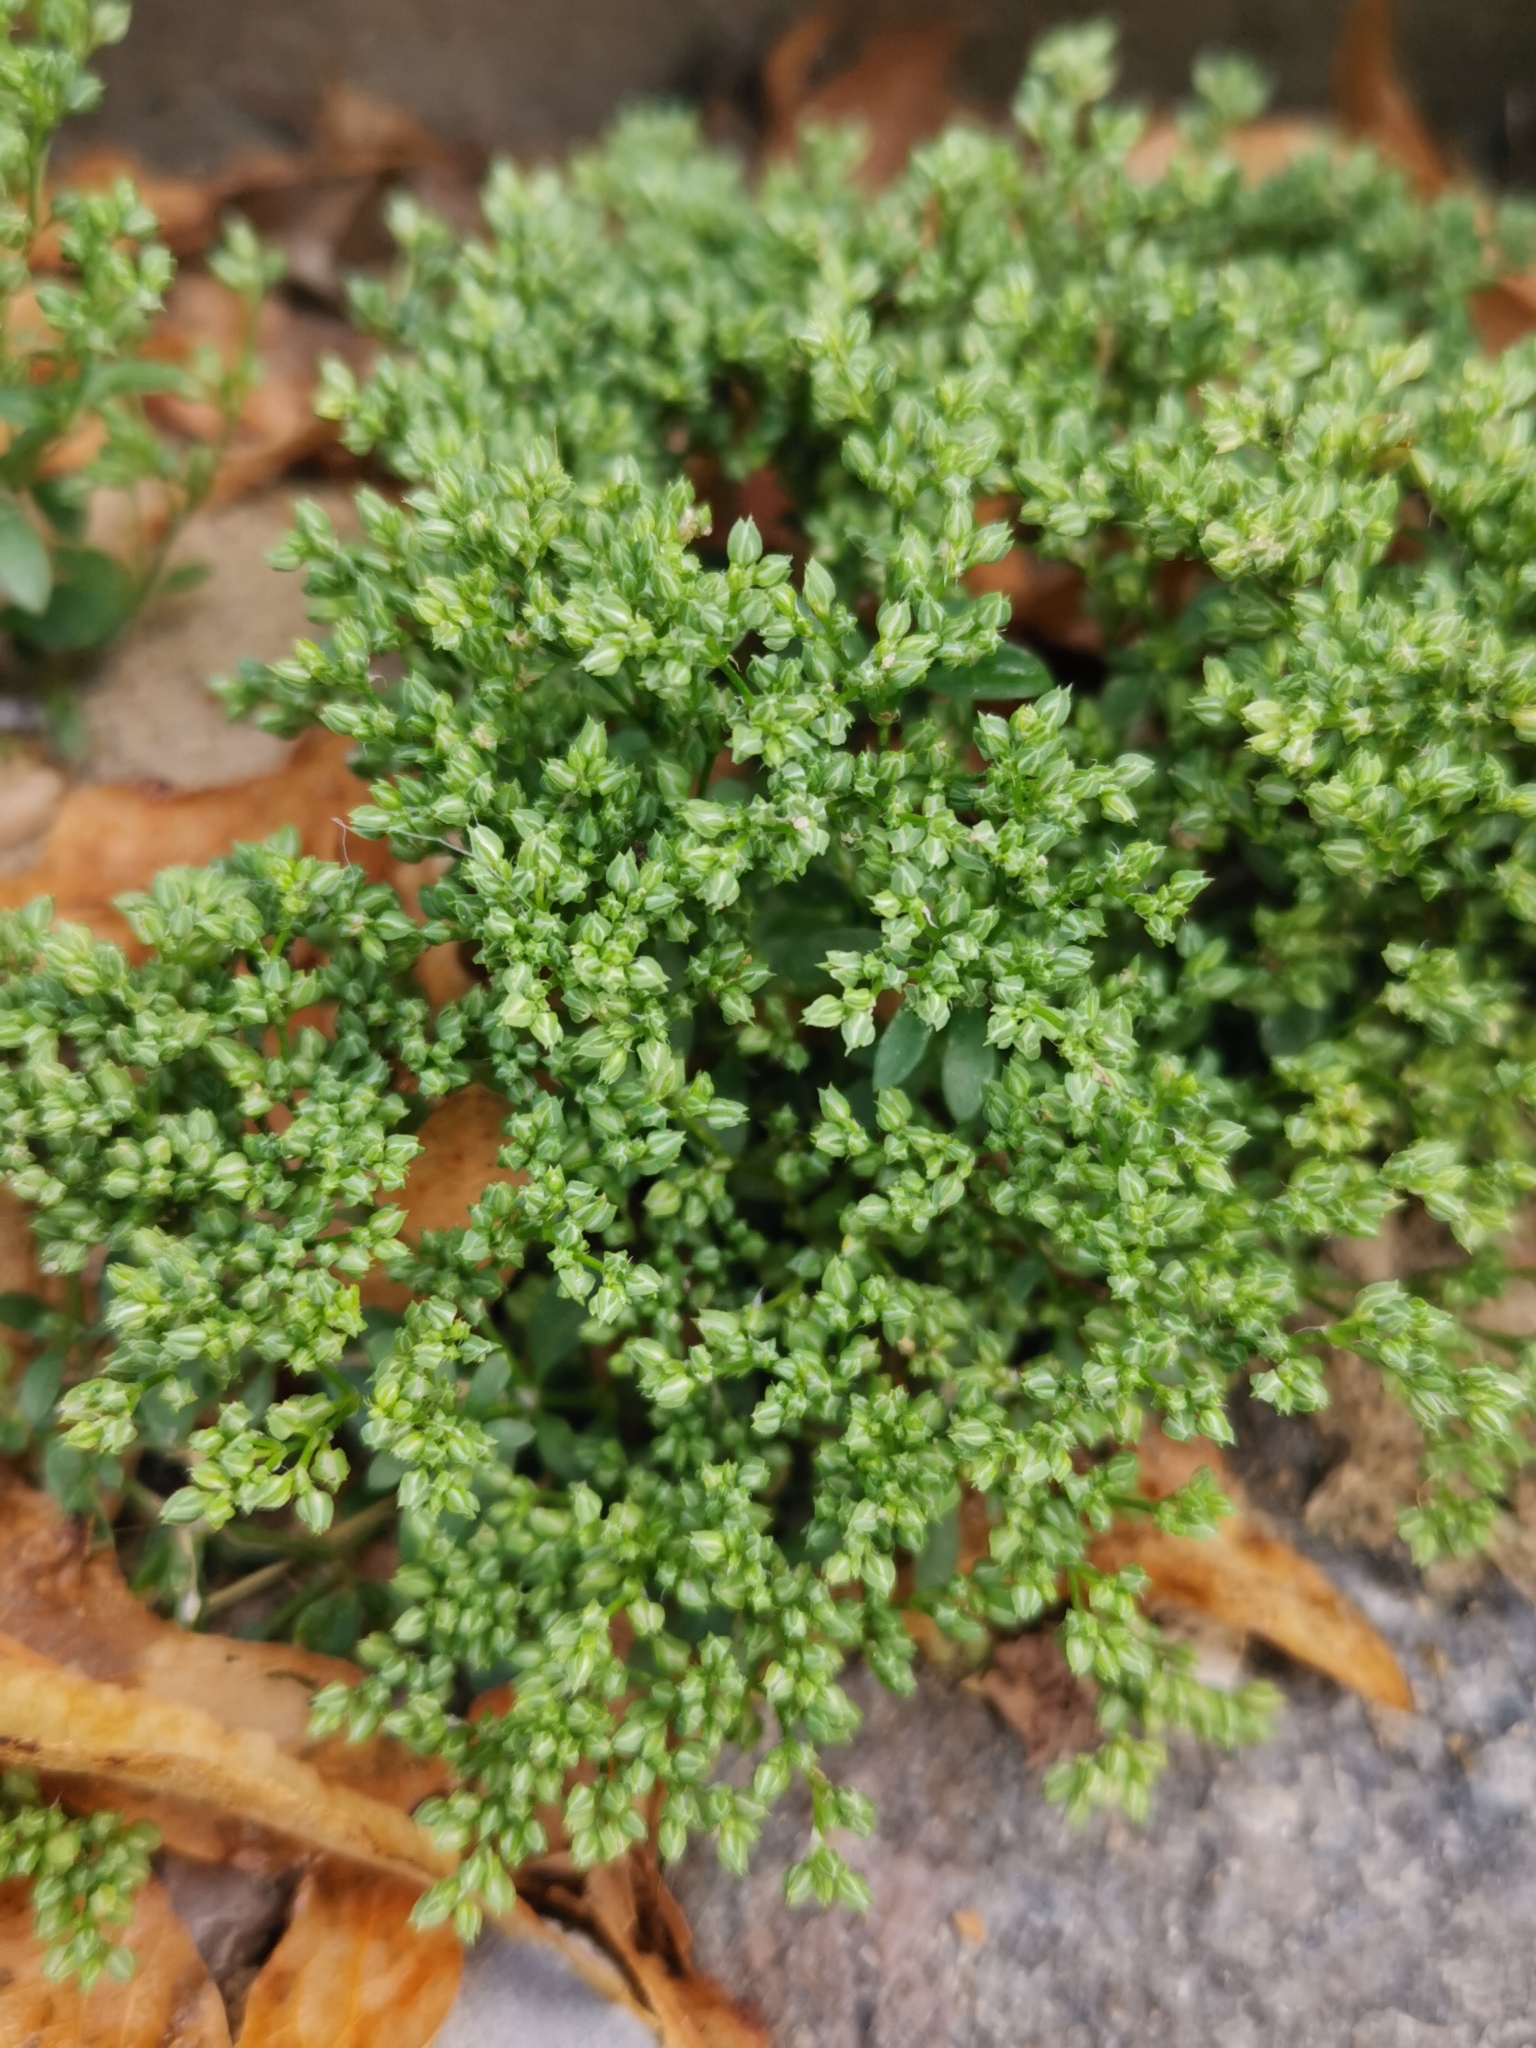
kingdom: Plantae
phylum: Tracheophyta
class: Magnoliopsida
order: Caryophyllales
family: Caryophyllaceae
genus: Polycarpon
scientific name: Polycarpon tetraphyllum
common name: Four-leaved all-seed
